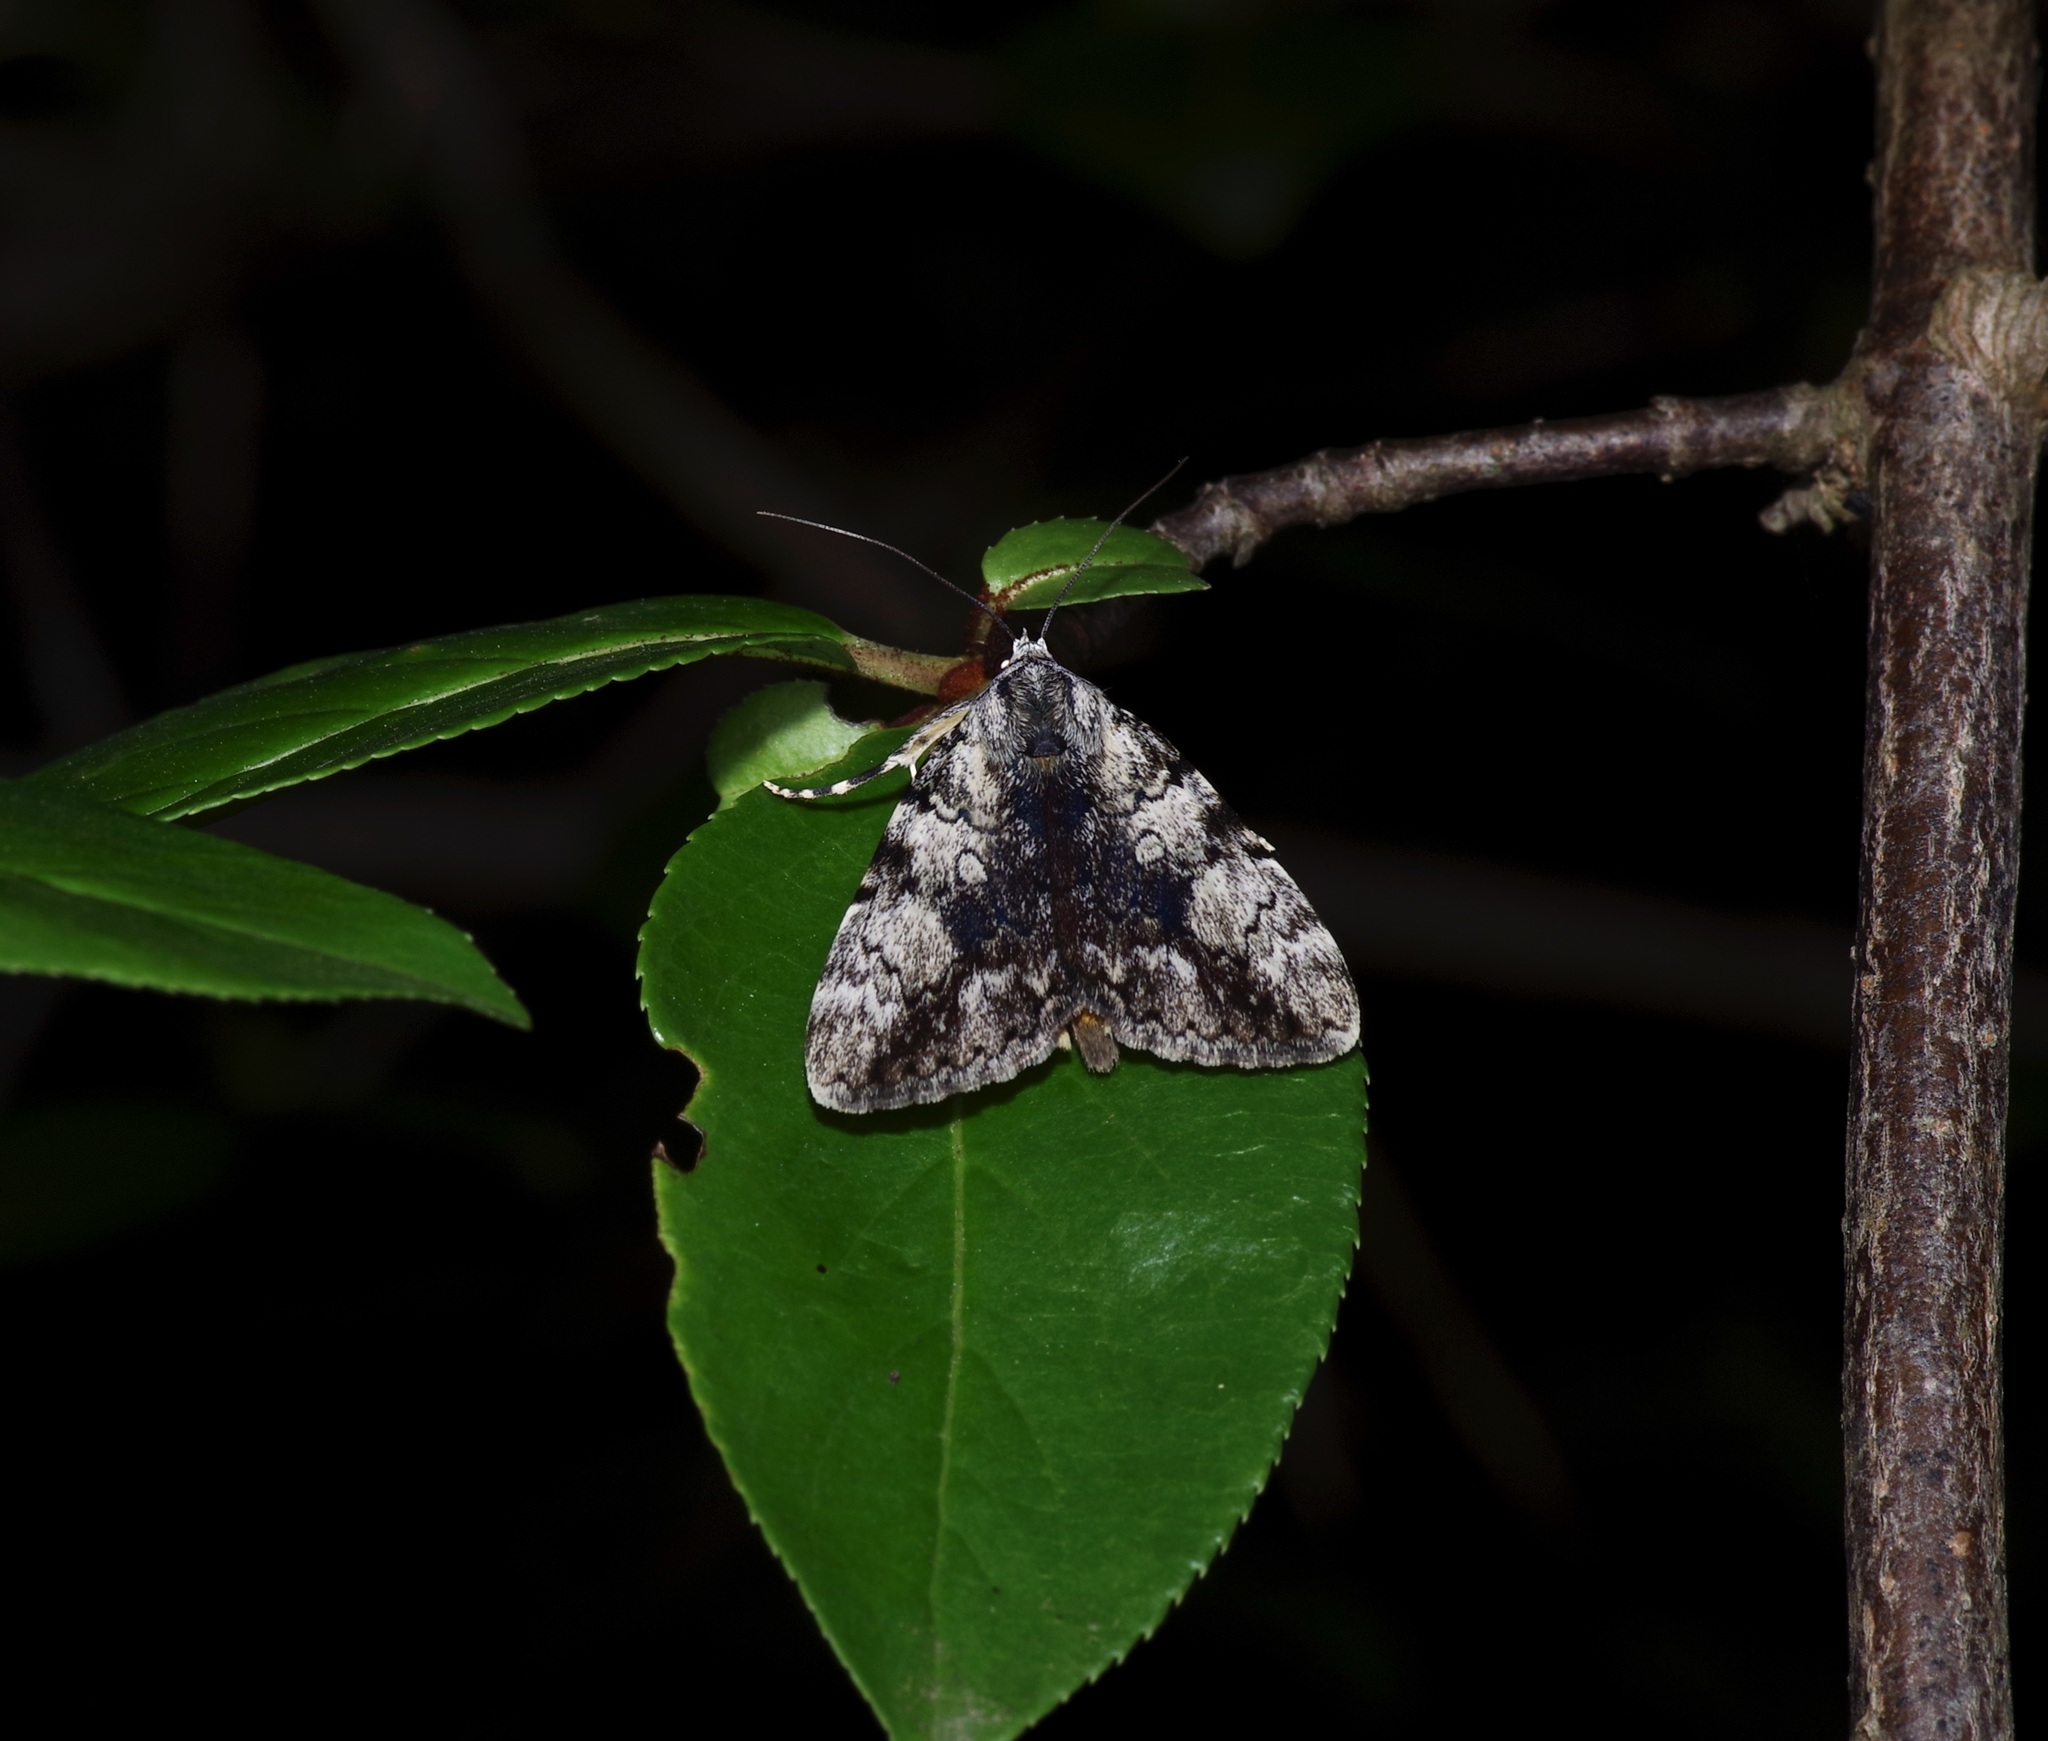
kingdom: Animalia
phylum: Arthropoda
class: Insecta
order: Lepidoptera
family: Erebidae
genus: Catocala
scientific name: Catocala amica
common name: Girlfriend underwing
